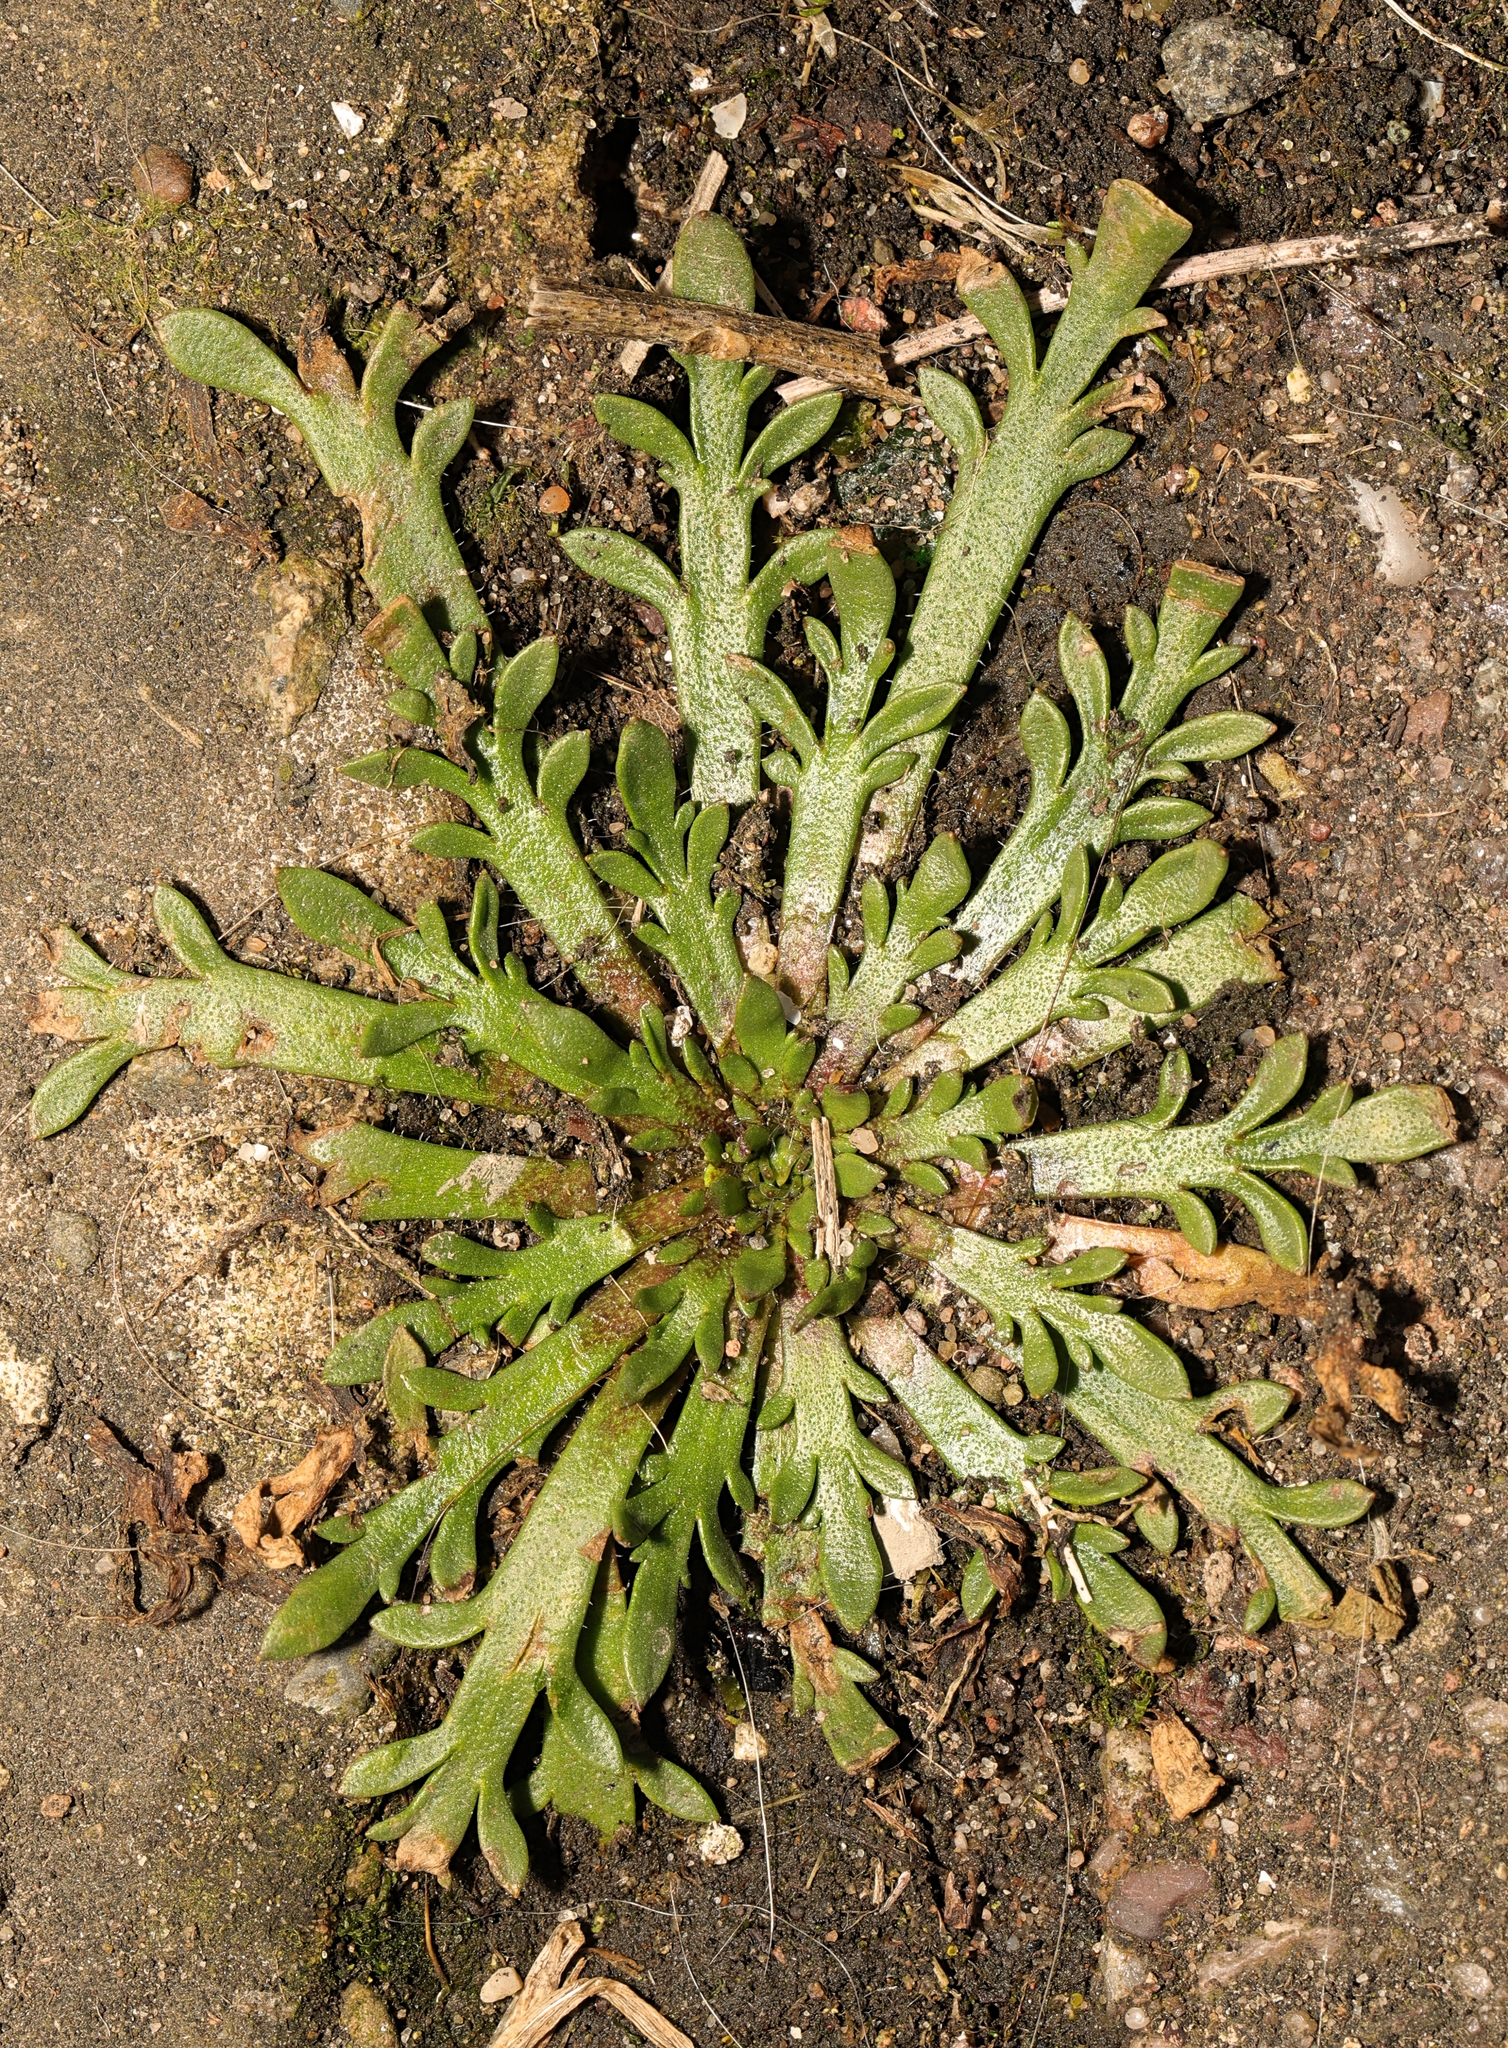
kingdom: Plantae
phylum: Tracheophyta
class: Magnoliopsida
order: Lamiales
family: Plantaginaceae
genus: Plantago
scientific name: Plantago coronopus
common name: Buck's-horn plantain
